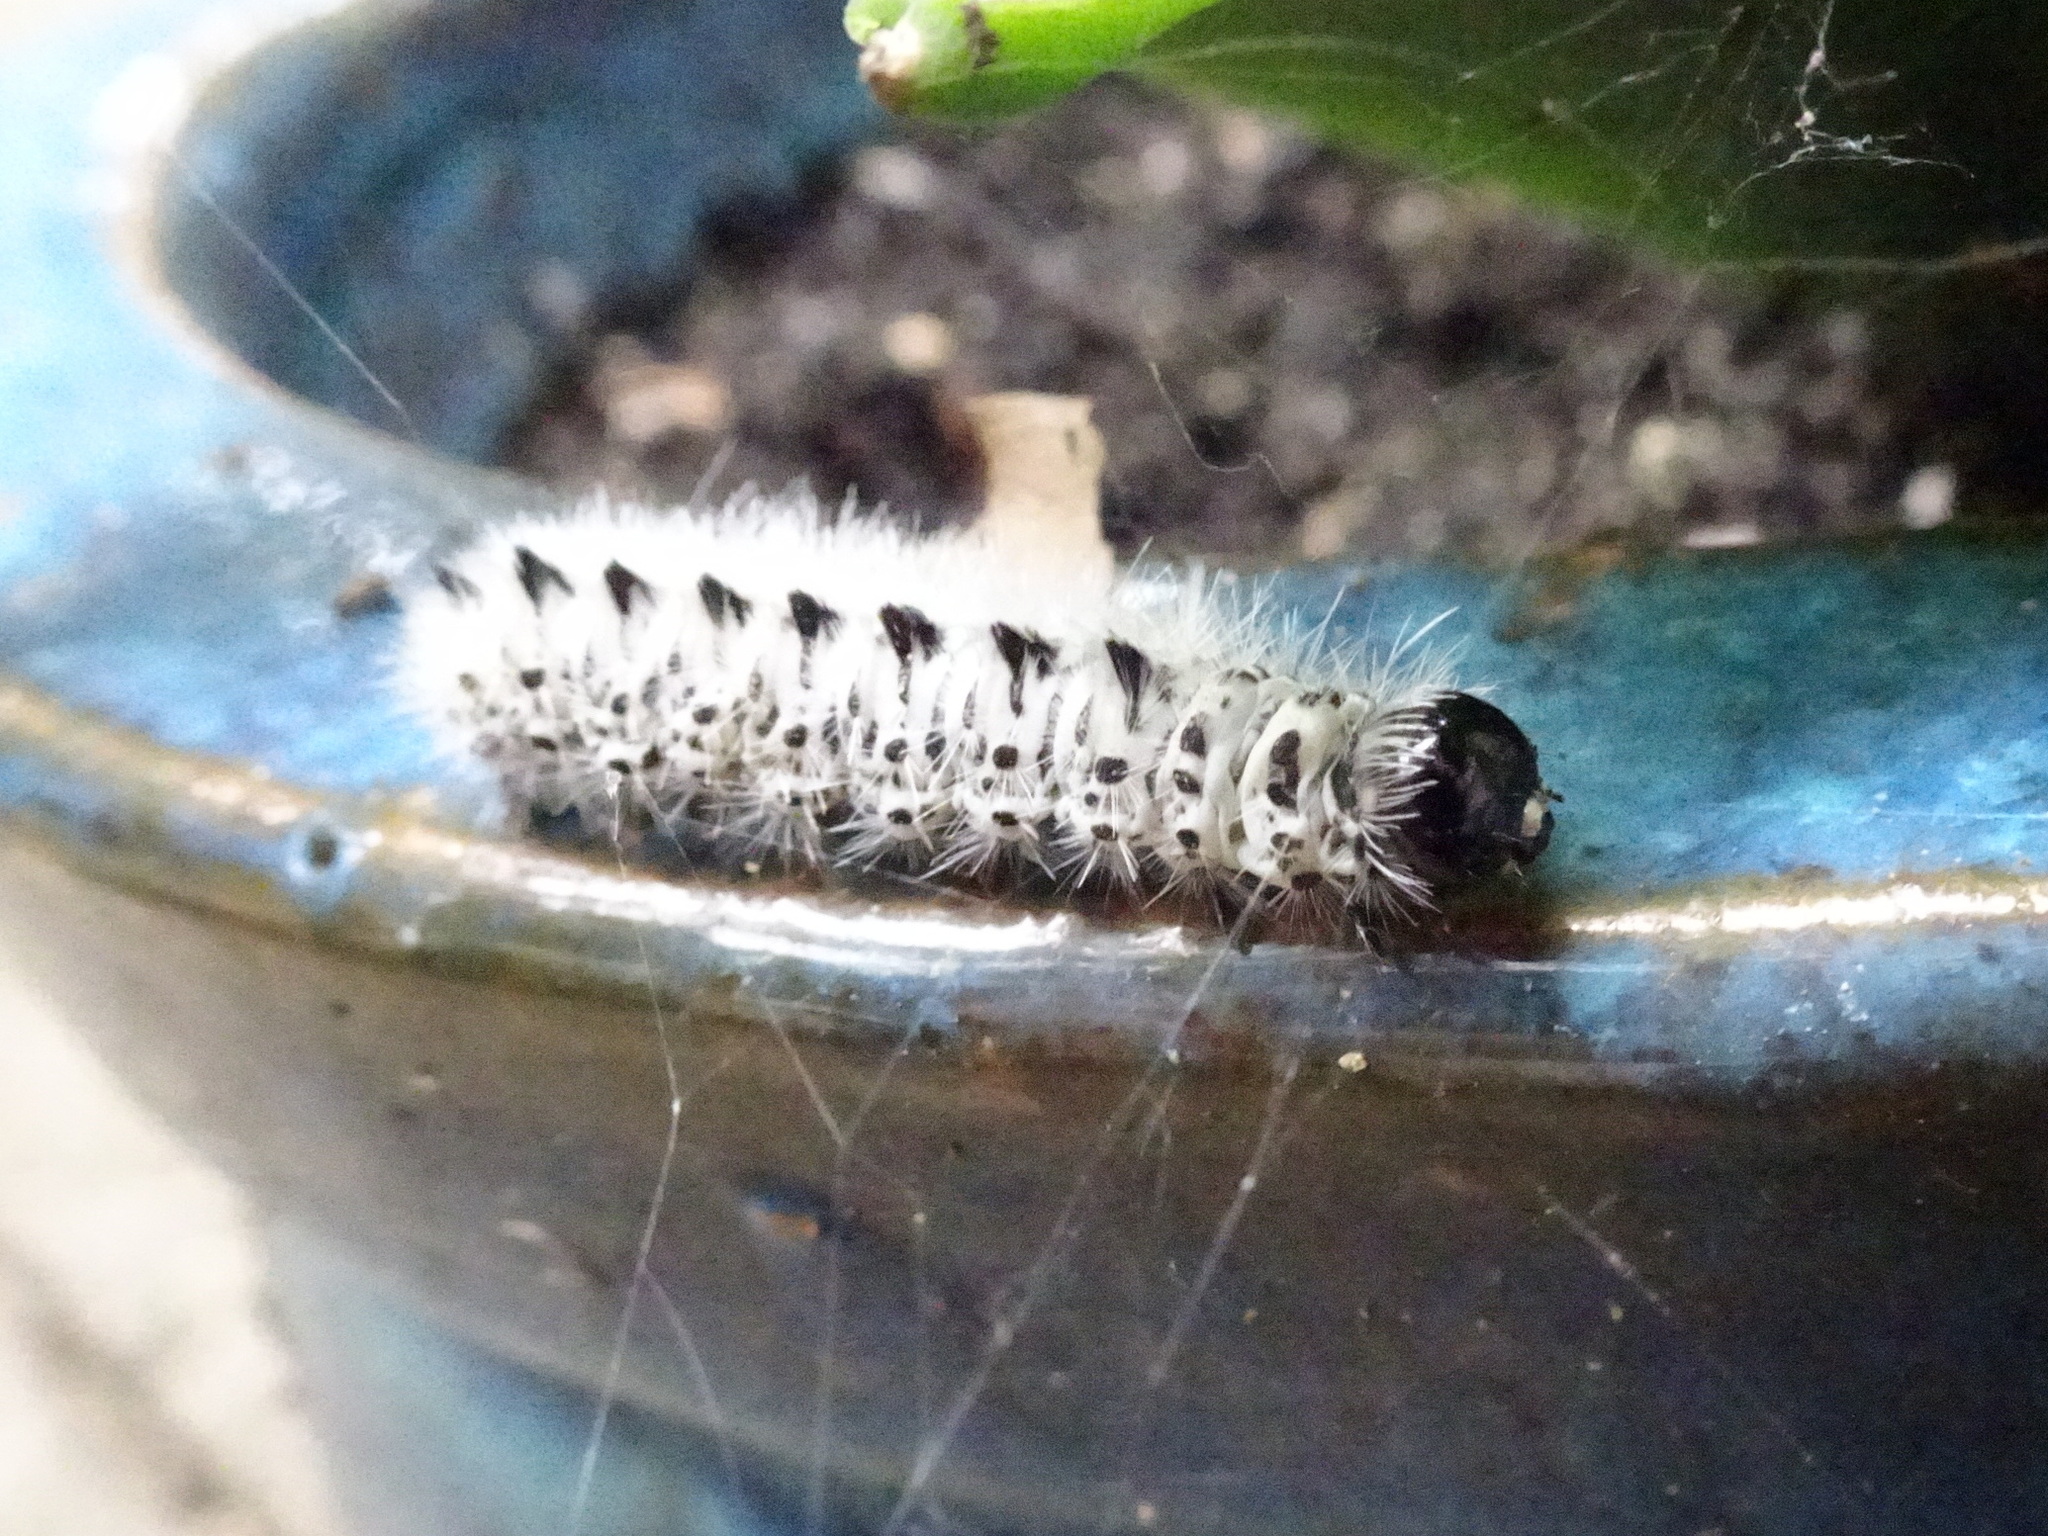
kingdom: Animalia
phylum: Arthropoda
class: Insecta
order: Lepidoptera
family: Erebidae
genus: Lophocampa
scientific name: Lophocampa caryae
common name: Hickory tussock moth
